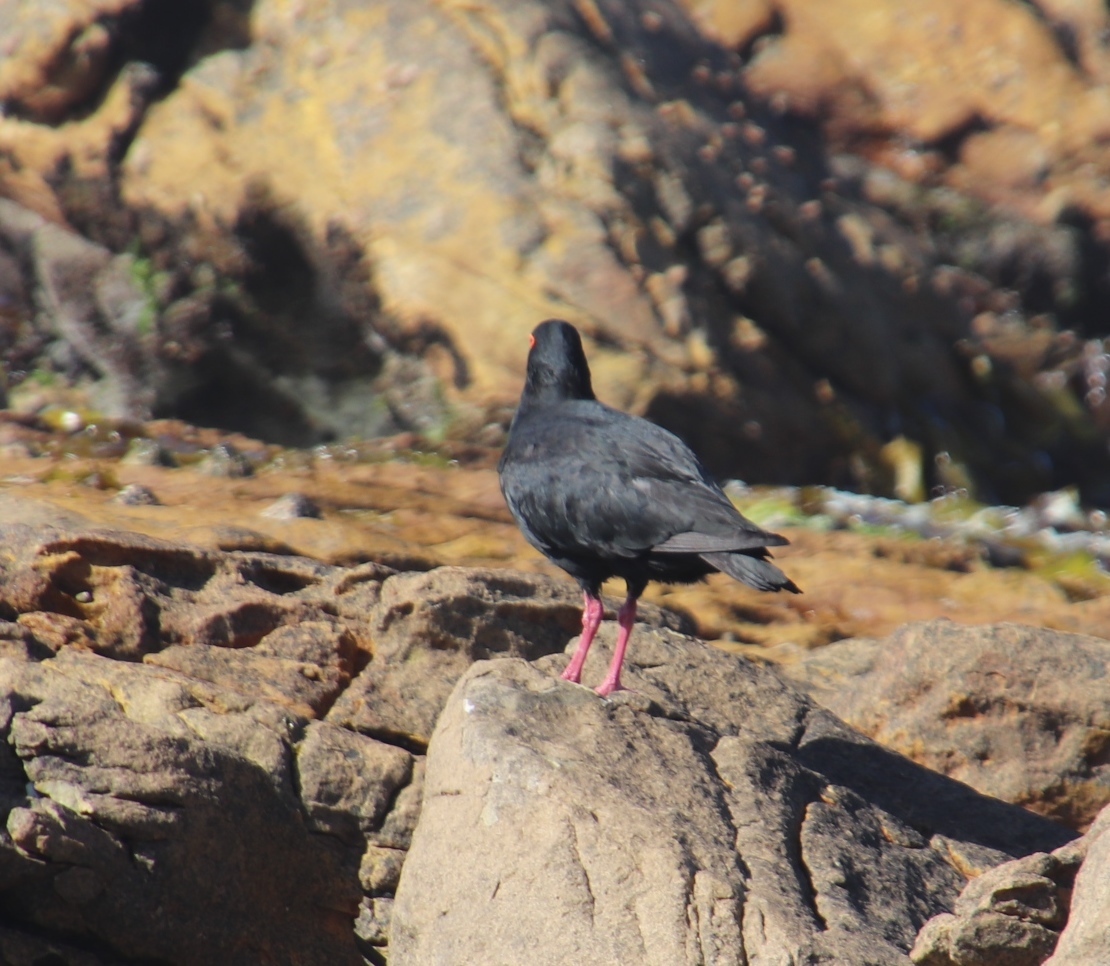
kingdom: Animalia
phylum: Chordata
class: Aves
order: Charadriiformes
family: Haematopodidae
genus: Haematopus
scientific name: Haematopus moquini
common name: African oystercatcher
